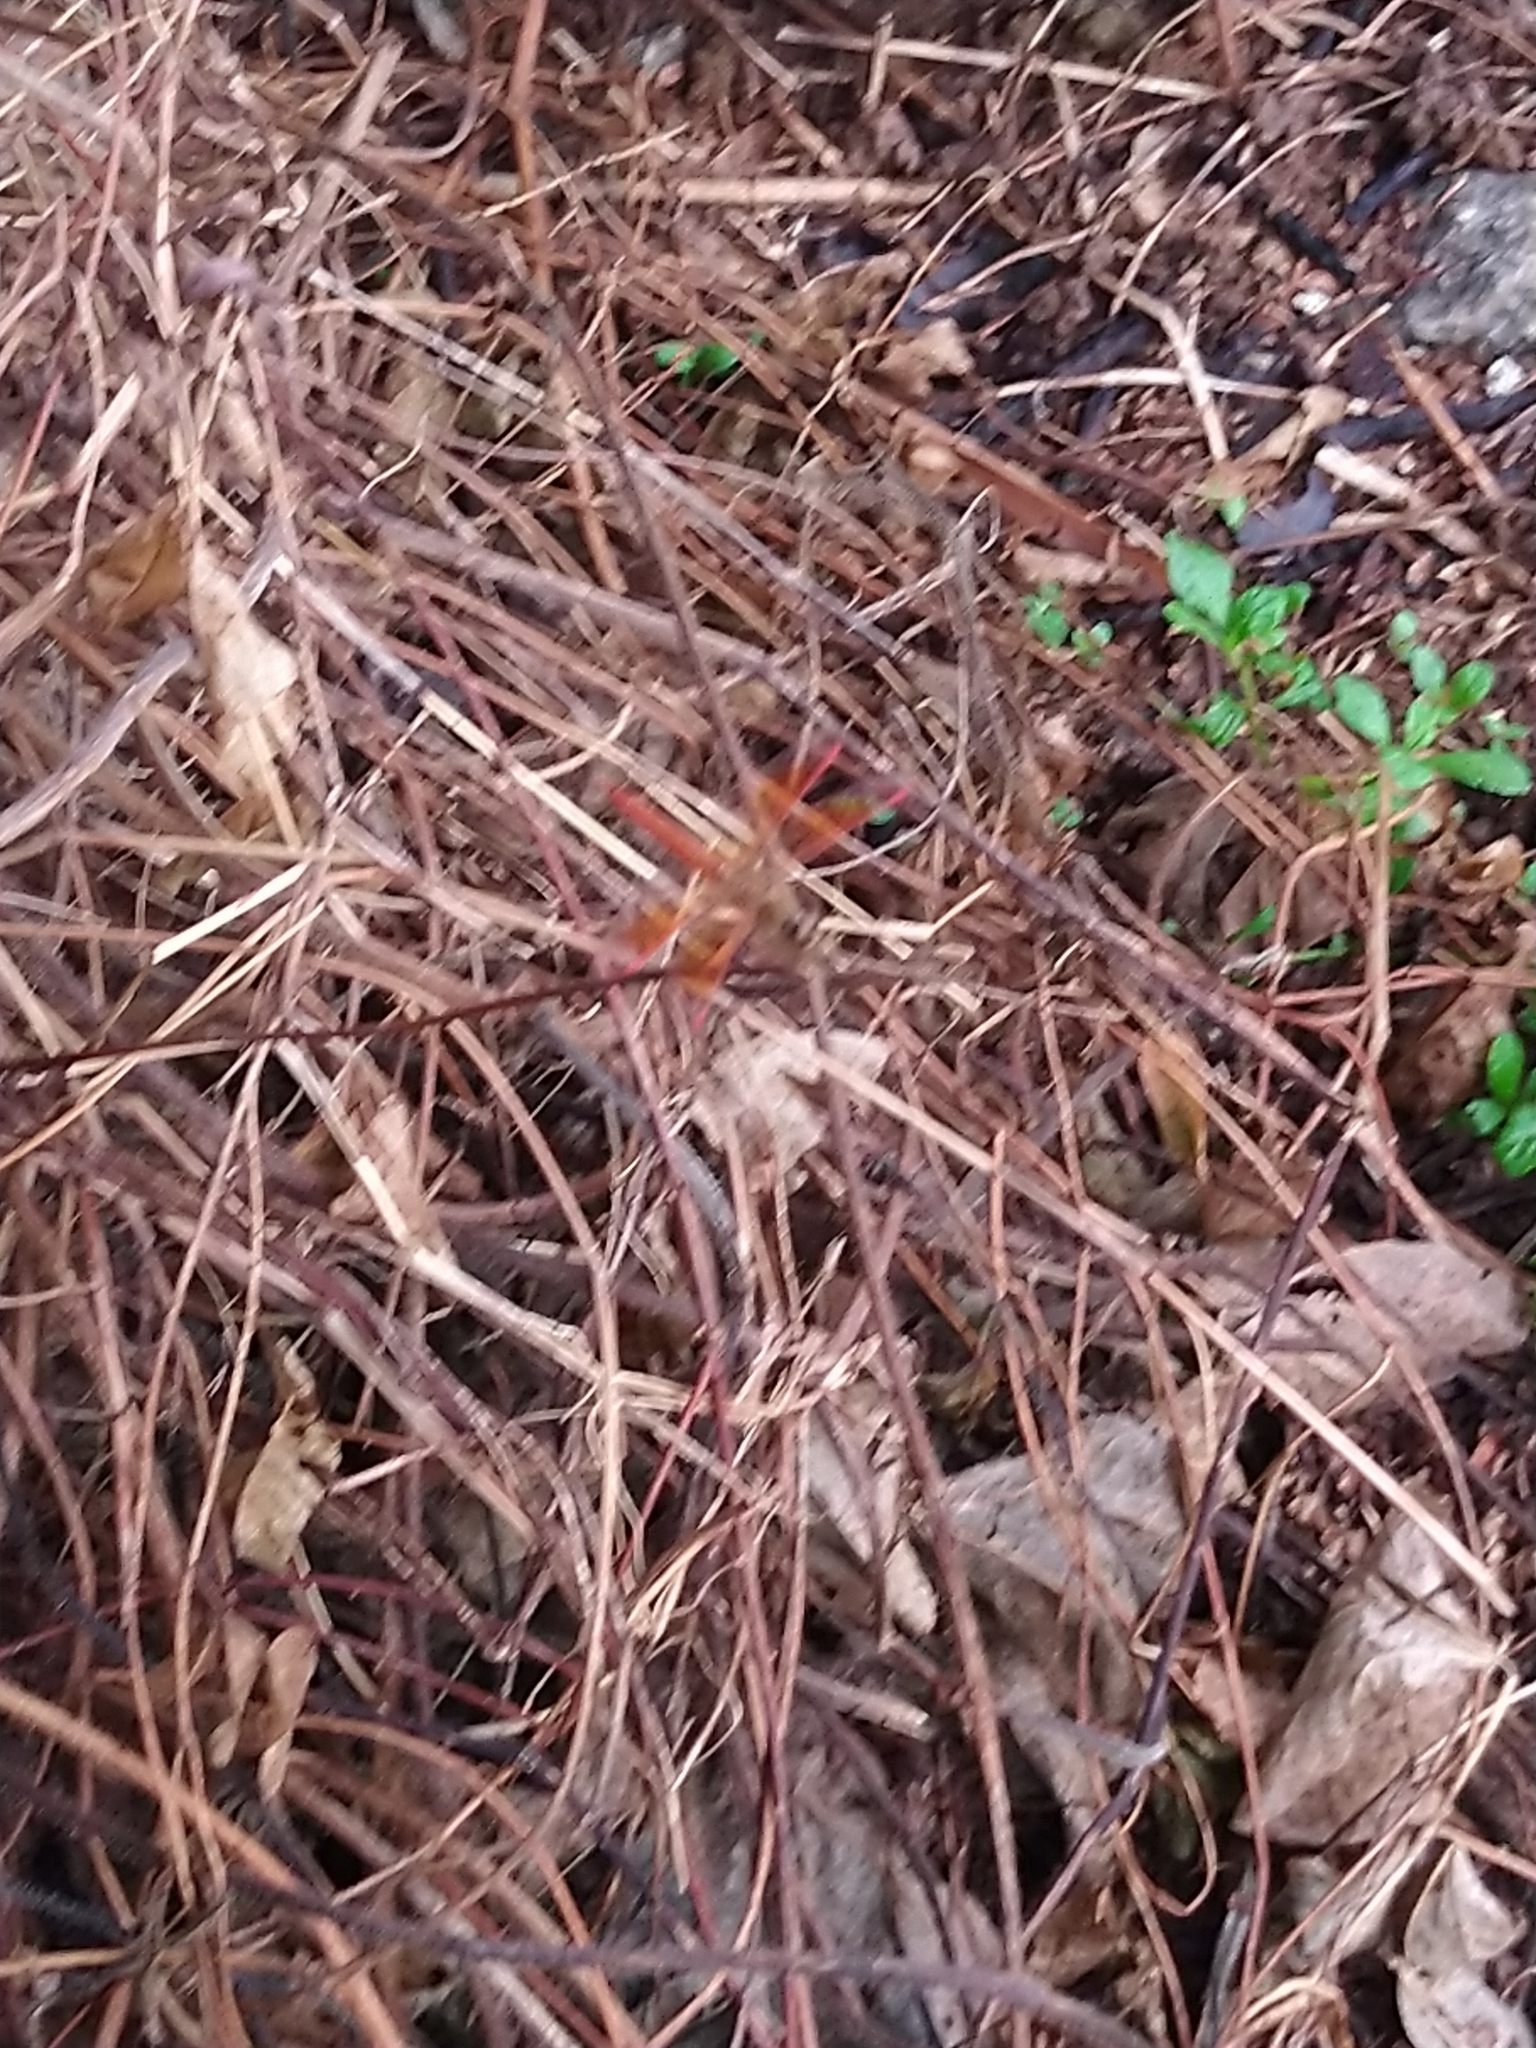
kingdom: Animalia
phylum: Arthropoda
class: Insecta
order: Odonata
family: Libellulidae
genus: Brachythemis
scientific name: Brachythemis contaminata
